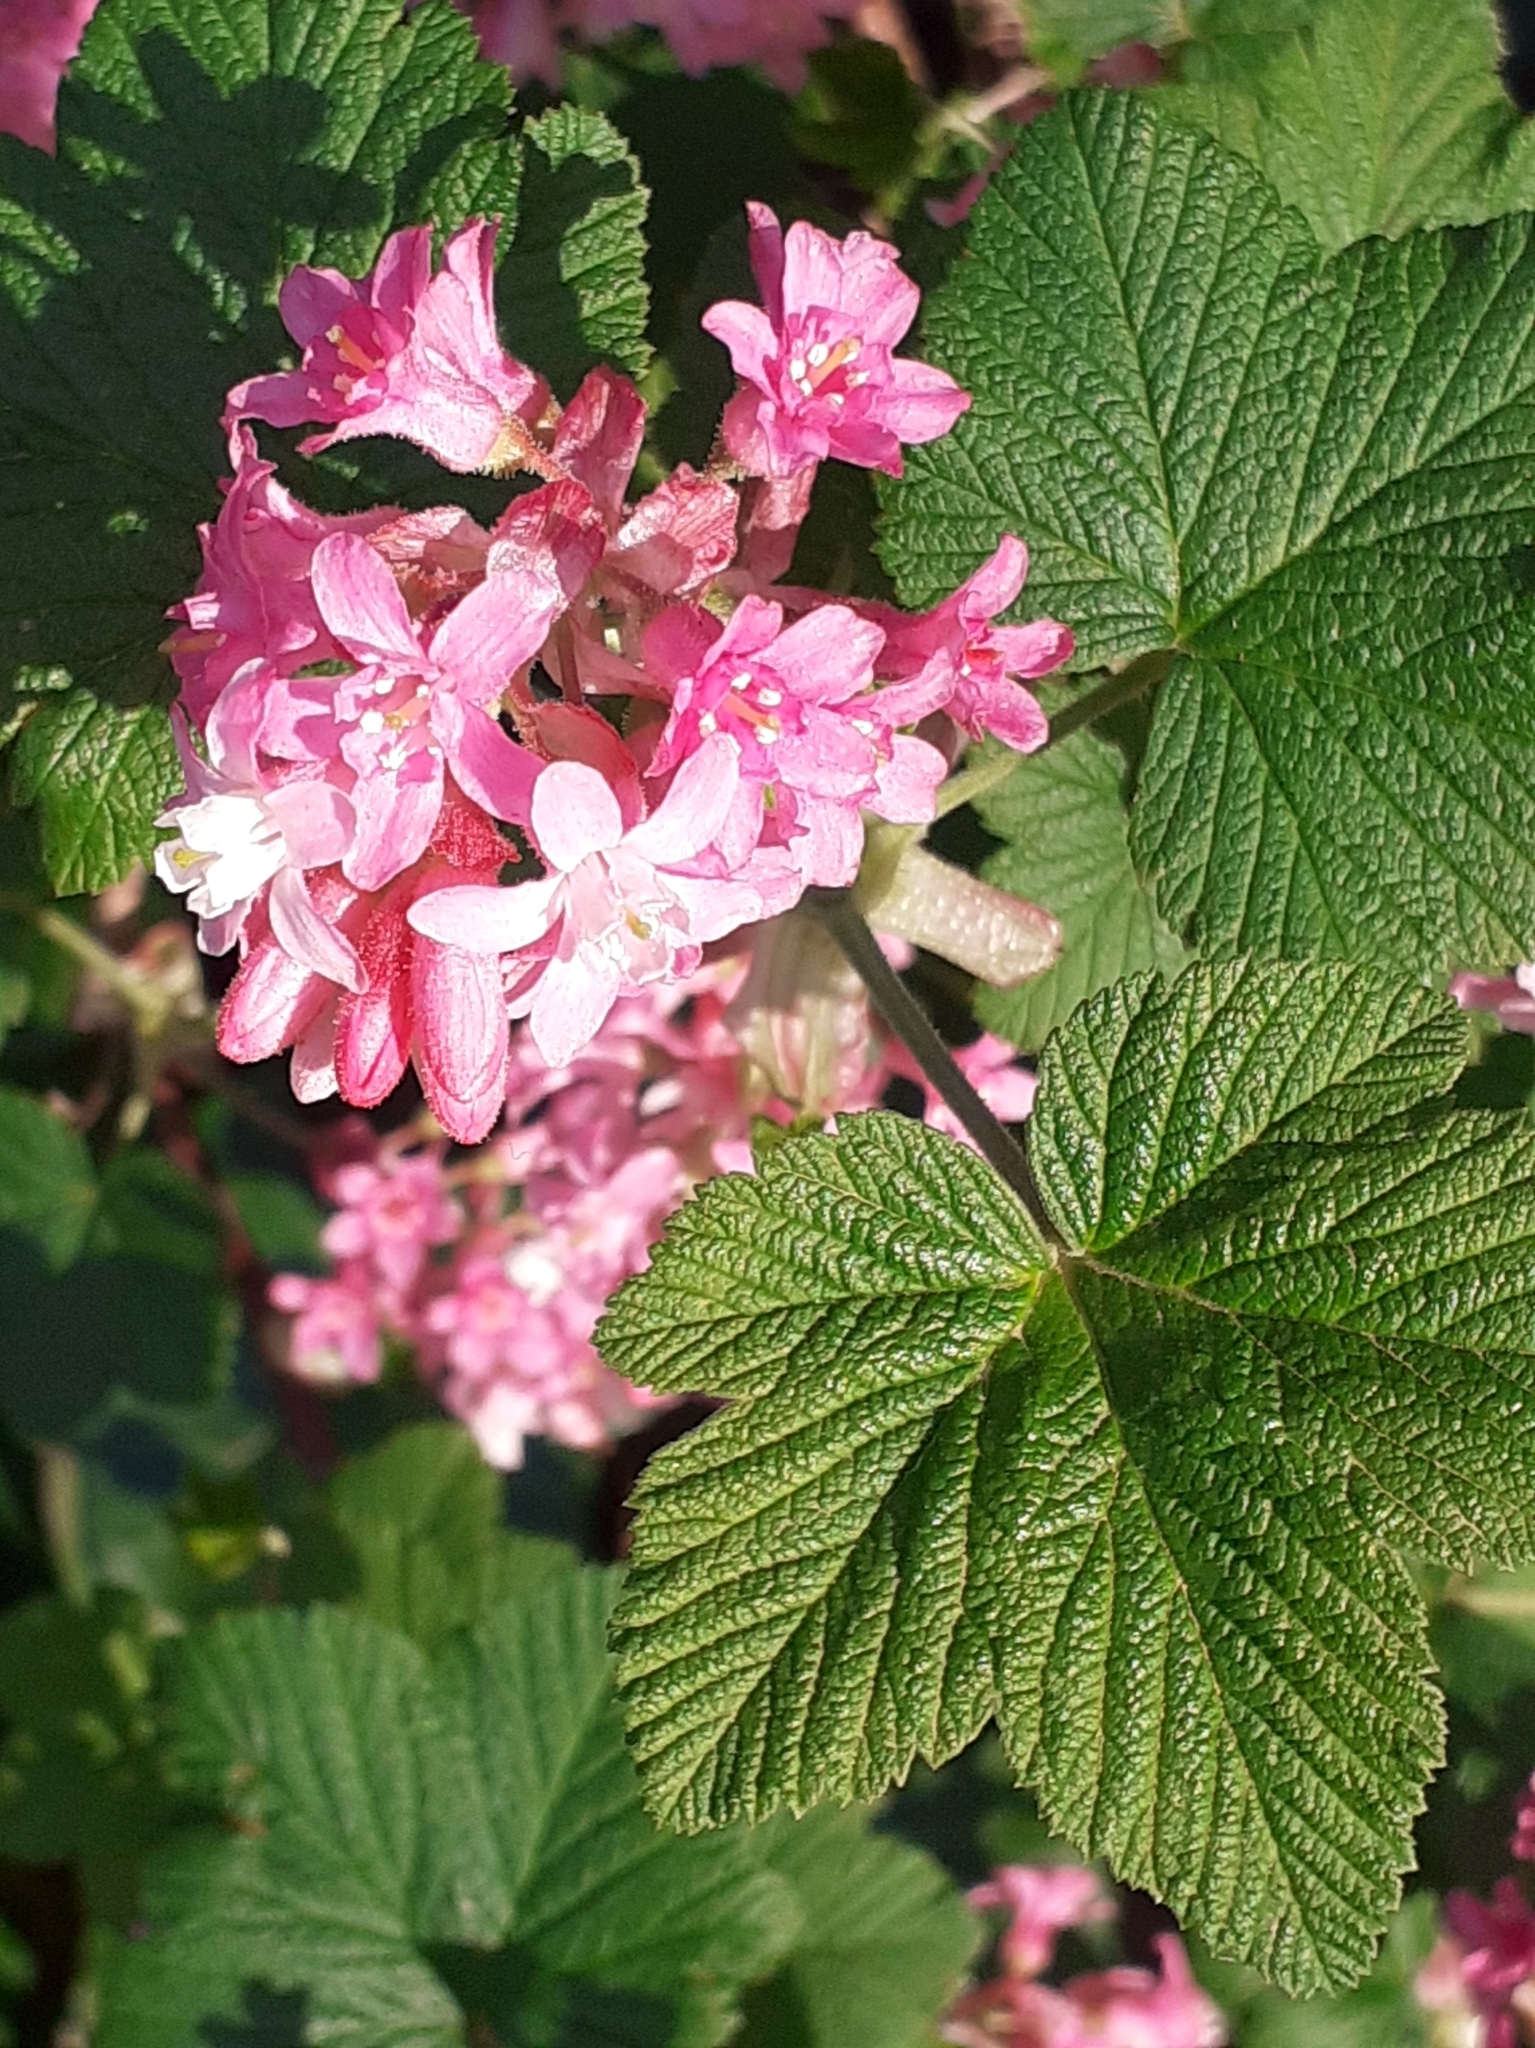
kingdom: Plantae
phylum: Tracheophyta
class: Magnoliopsida
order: Saxifragales
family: Grossulariaceae
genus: Ribes
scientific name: Ribes sanguineum
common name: Flowering currant
